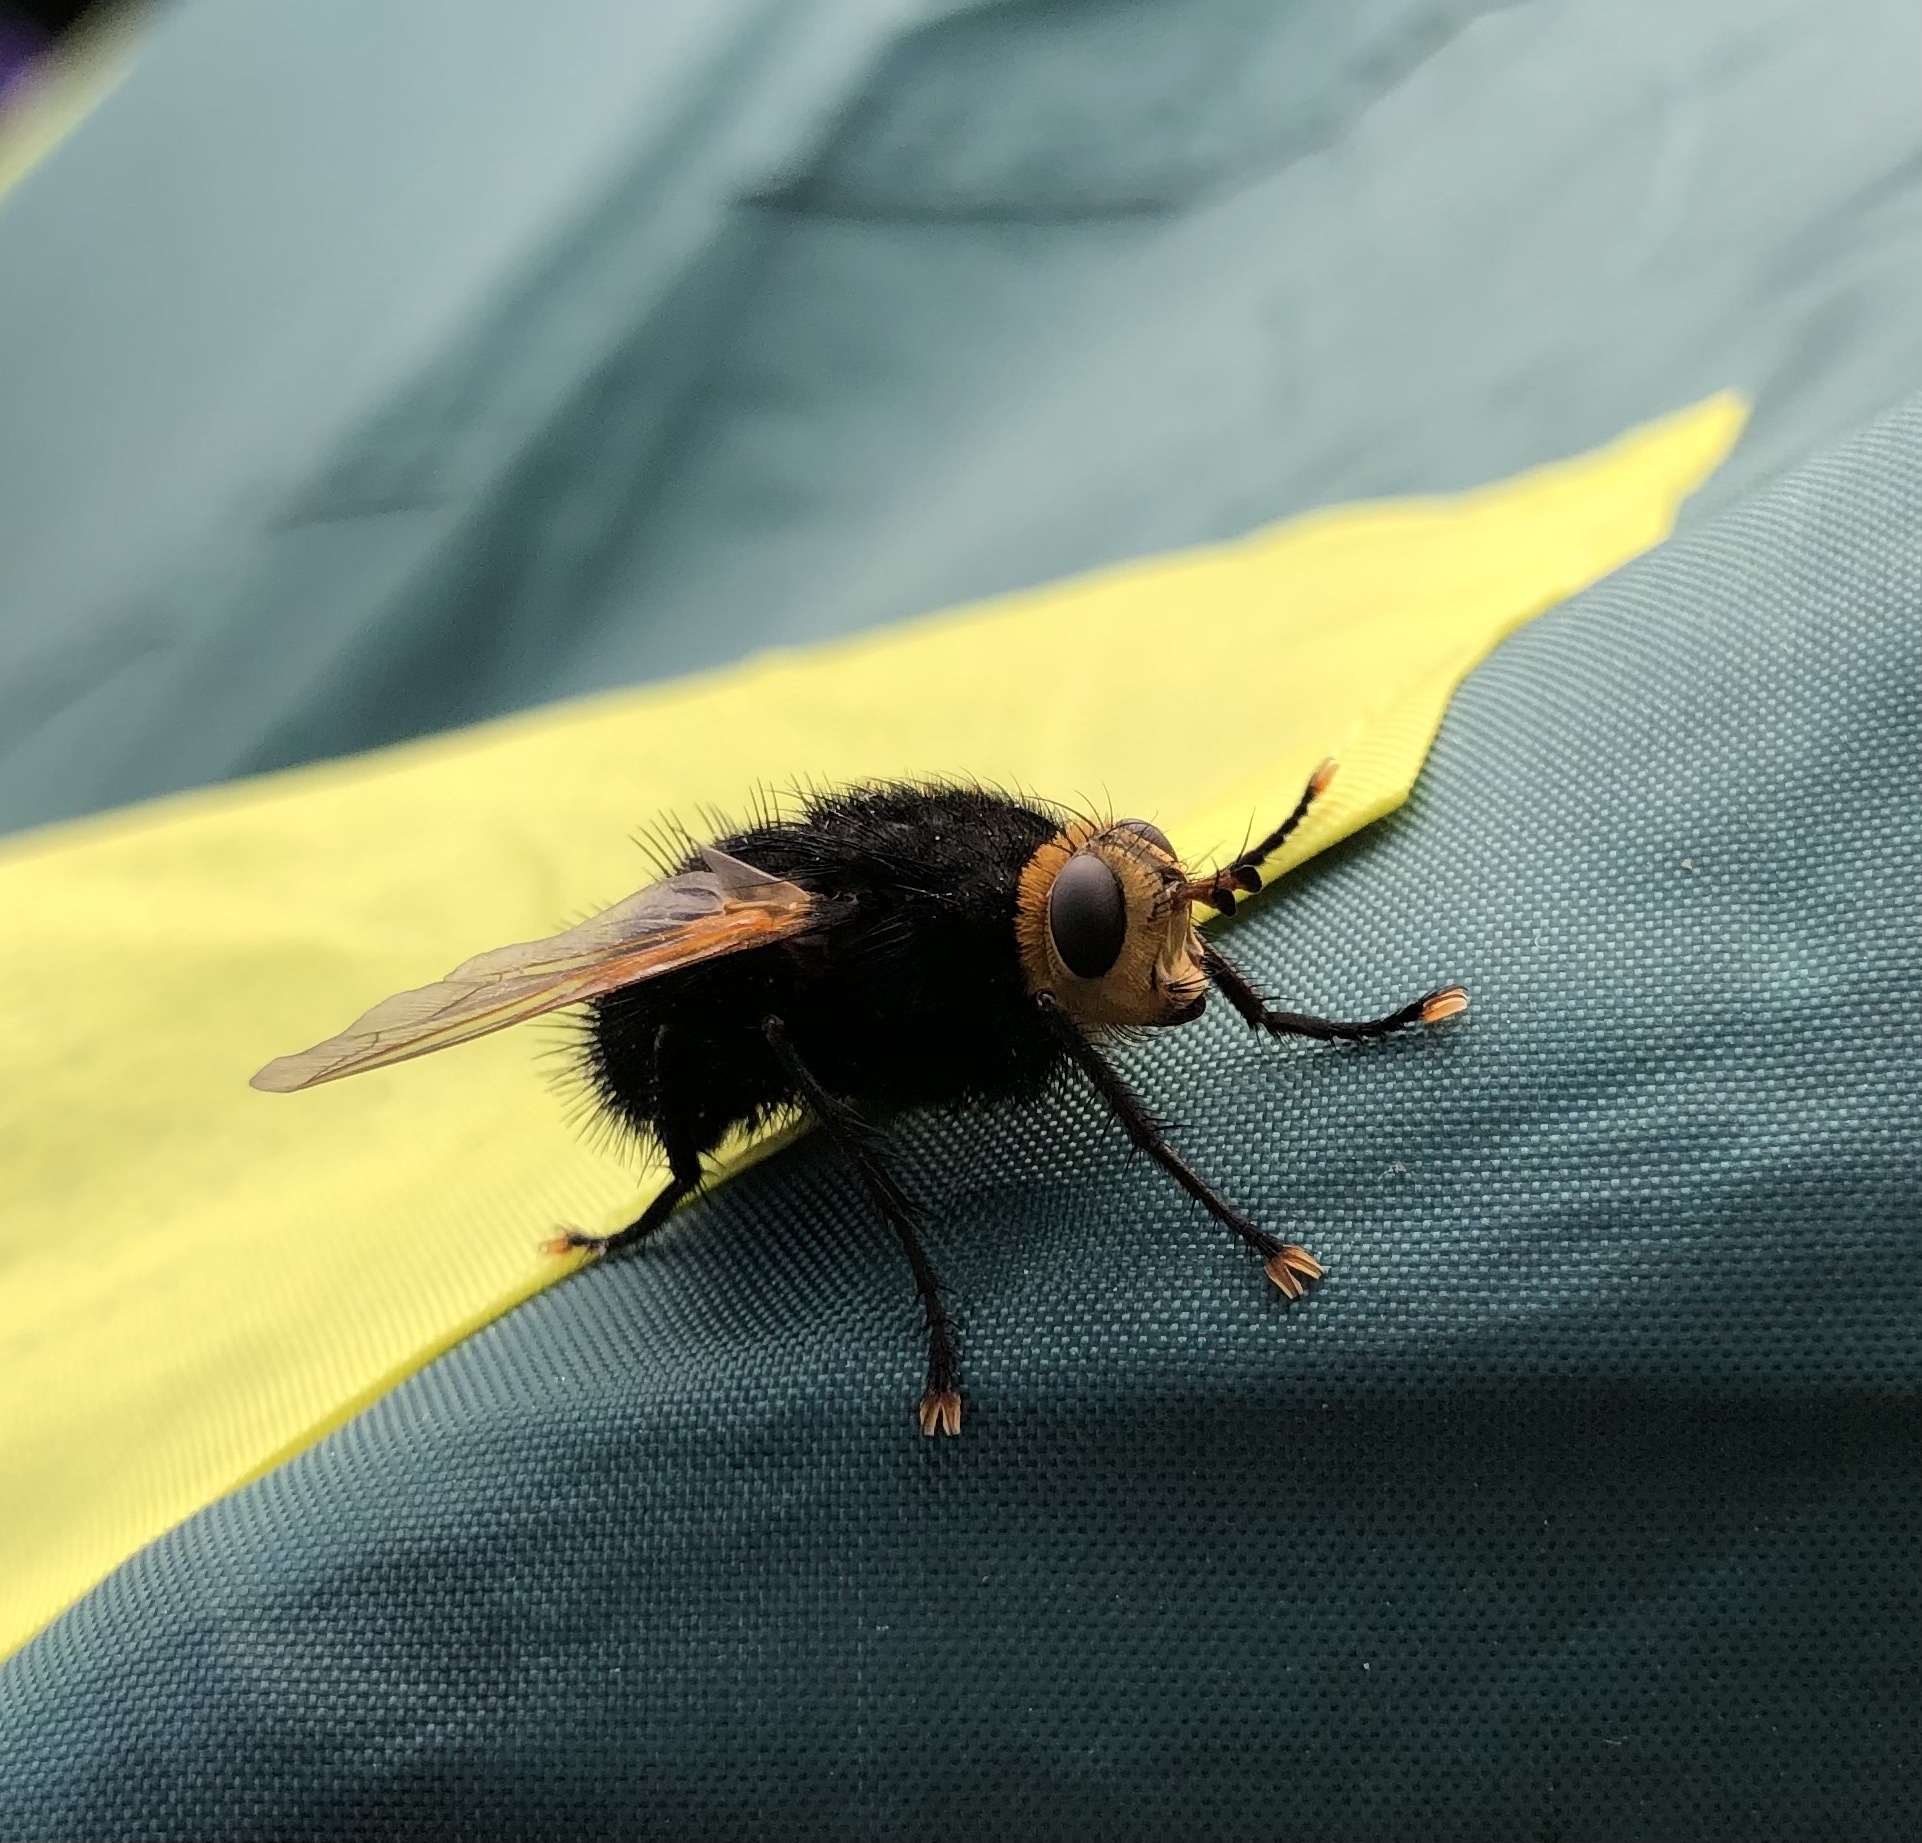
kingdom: Animalia
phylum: Arthropoda
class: Insecta
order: Diptera
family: Tachinidae
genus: Tachina
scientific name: Tachina grossa
